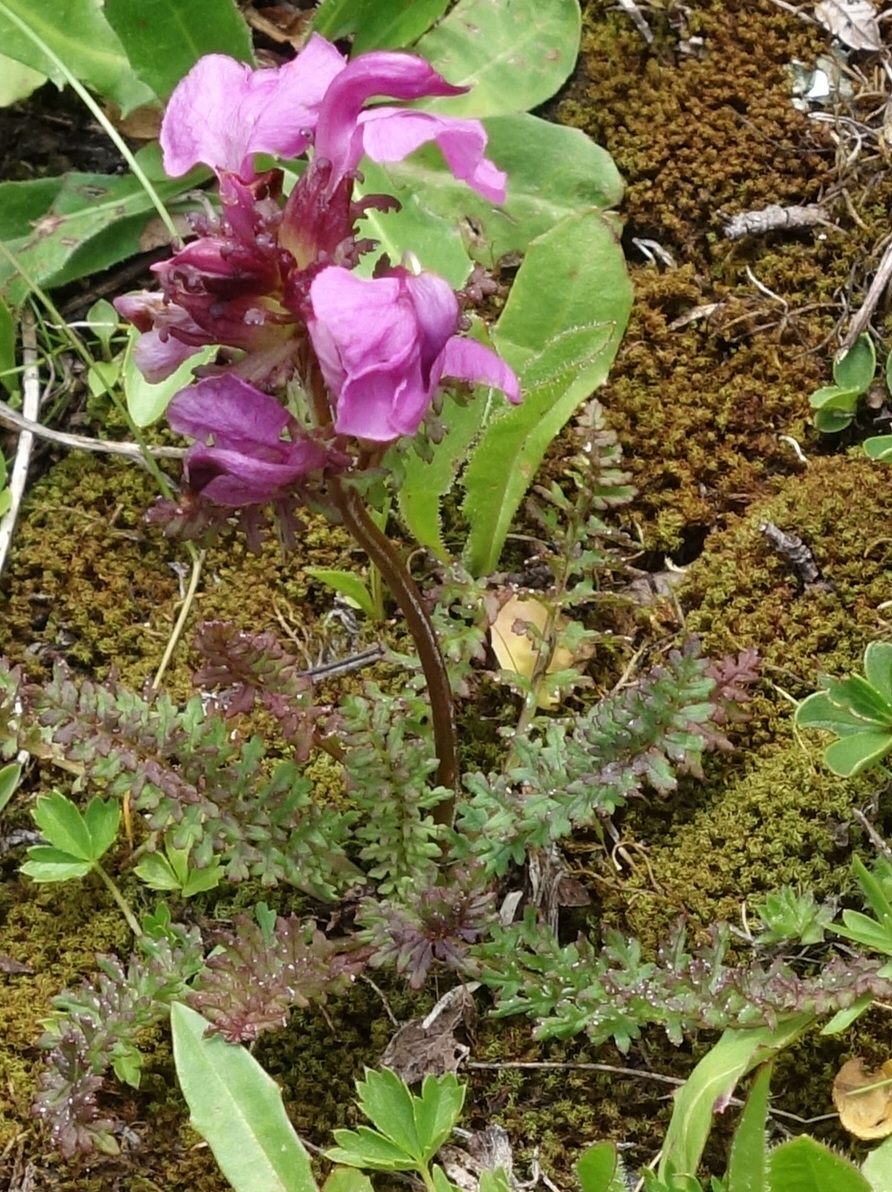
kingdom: Plantae
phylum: Tracheophyta
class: Magnoliopsida
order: Lamiales
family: Orobanchaceae
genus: Pedicularis
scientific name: Pedicularis rostratocapitata
